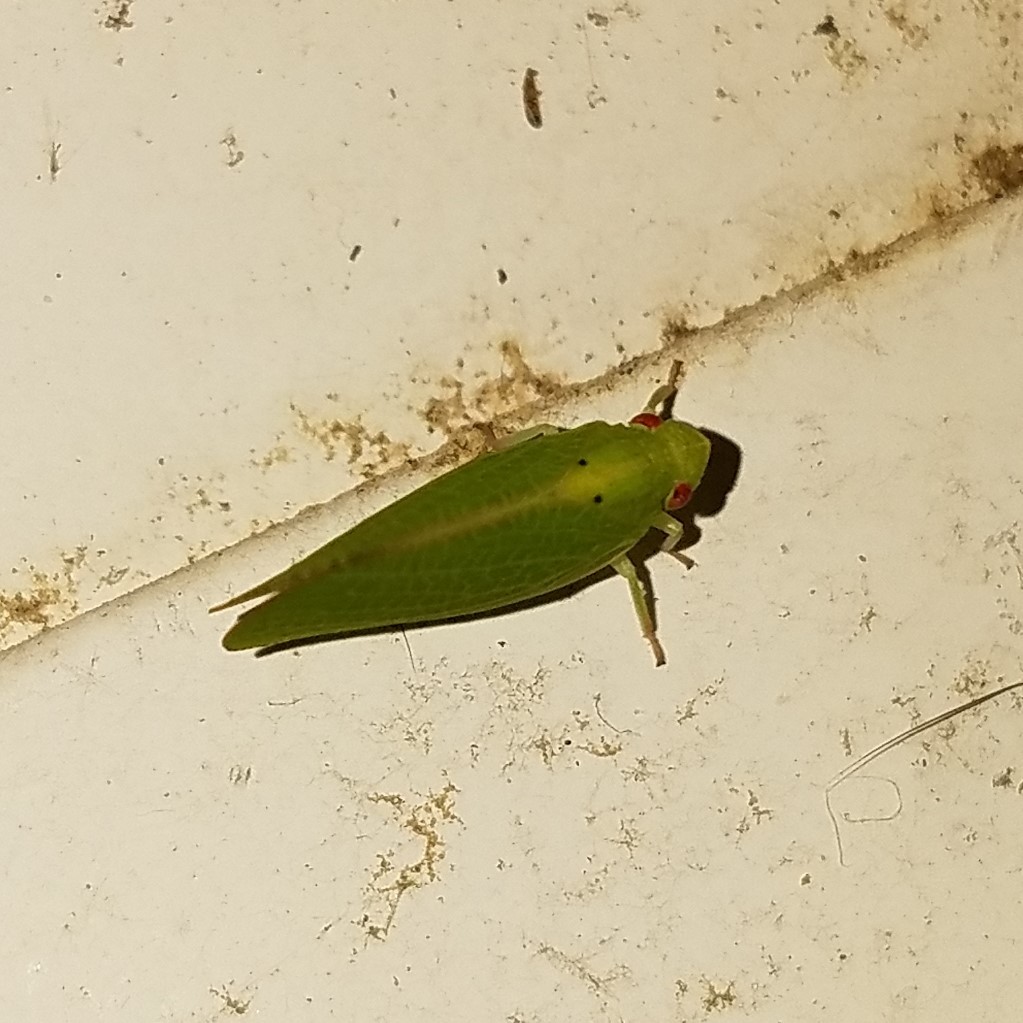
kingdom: Animalia
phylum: Arthropoda
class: Insecta
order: Hemiptera
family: Acanaloniidae
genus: Acanalonia
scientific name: Acanalonia conica
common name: Green cone-headed planthopper
